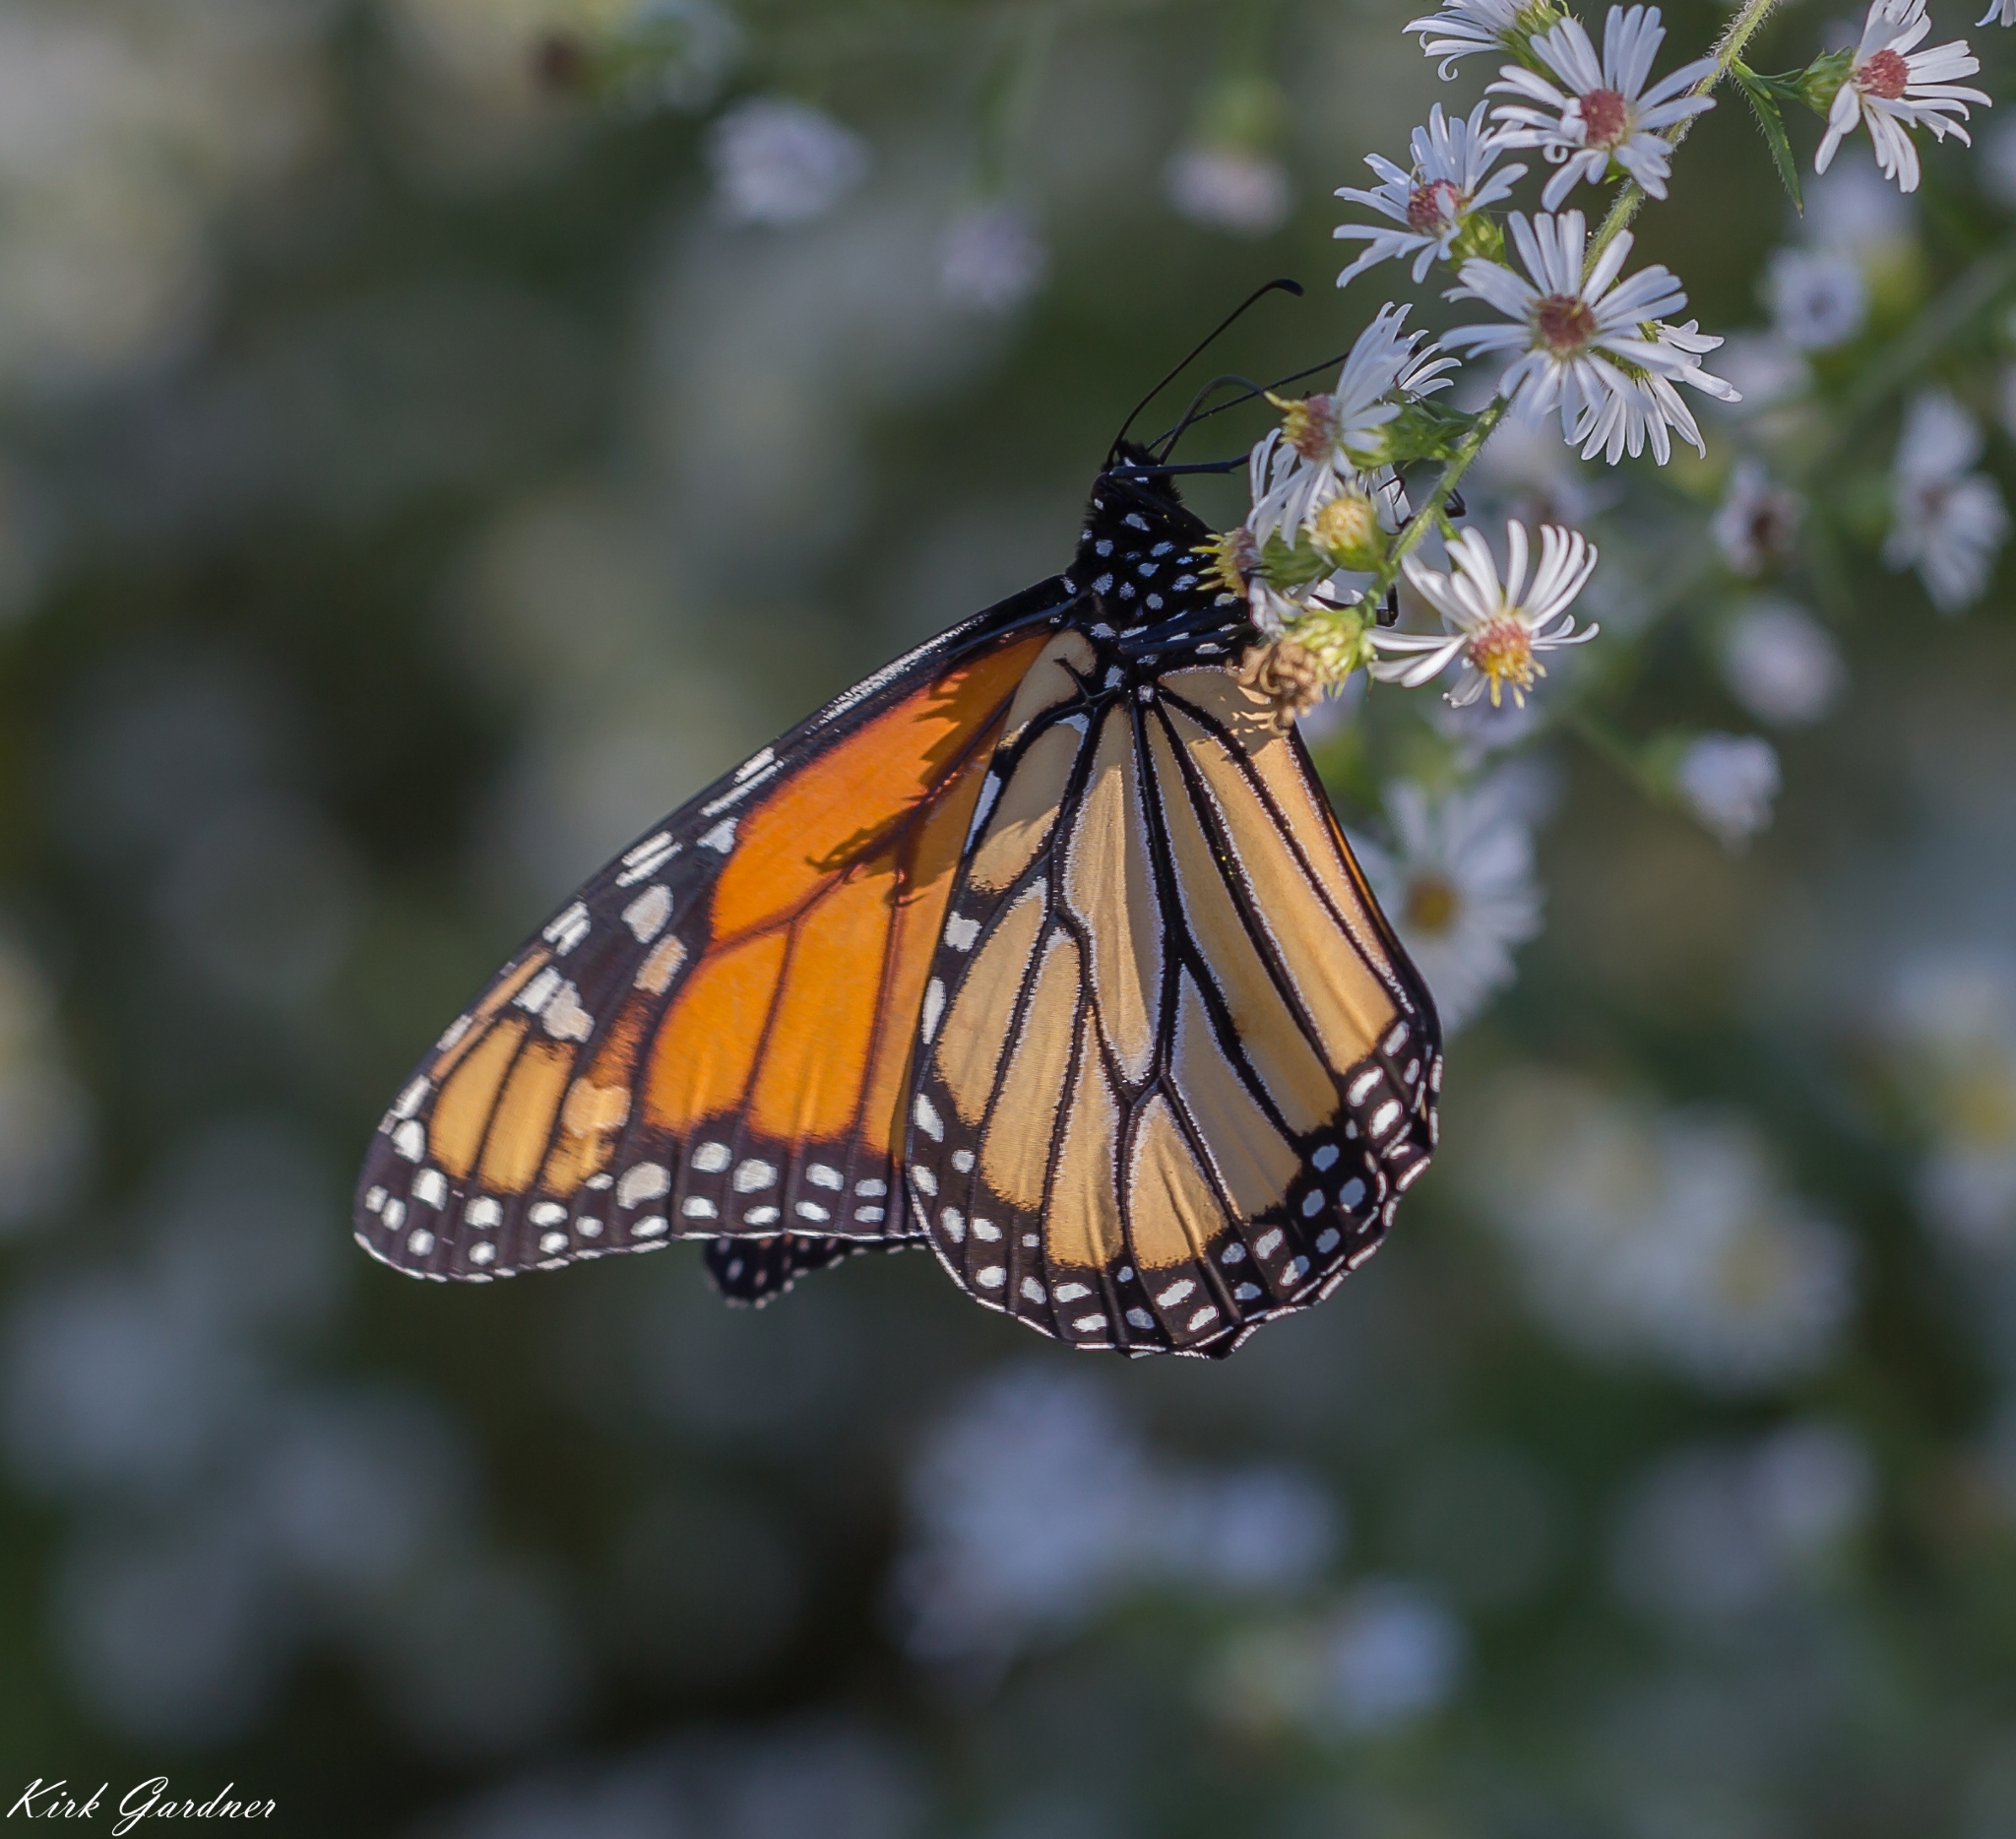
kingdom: Animalia
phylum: Arthropoda
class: Insecta
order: Lepidoptera
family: Nymphalidae
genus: Danaus
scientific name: Danaus plexippus
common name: Monarch
